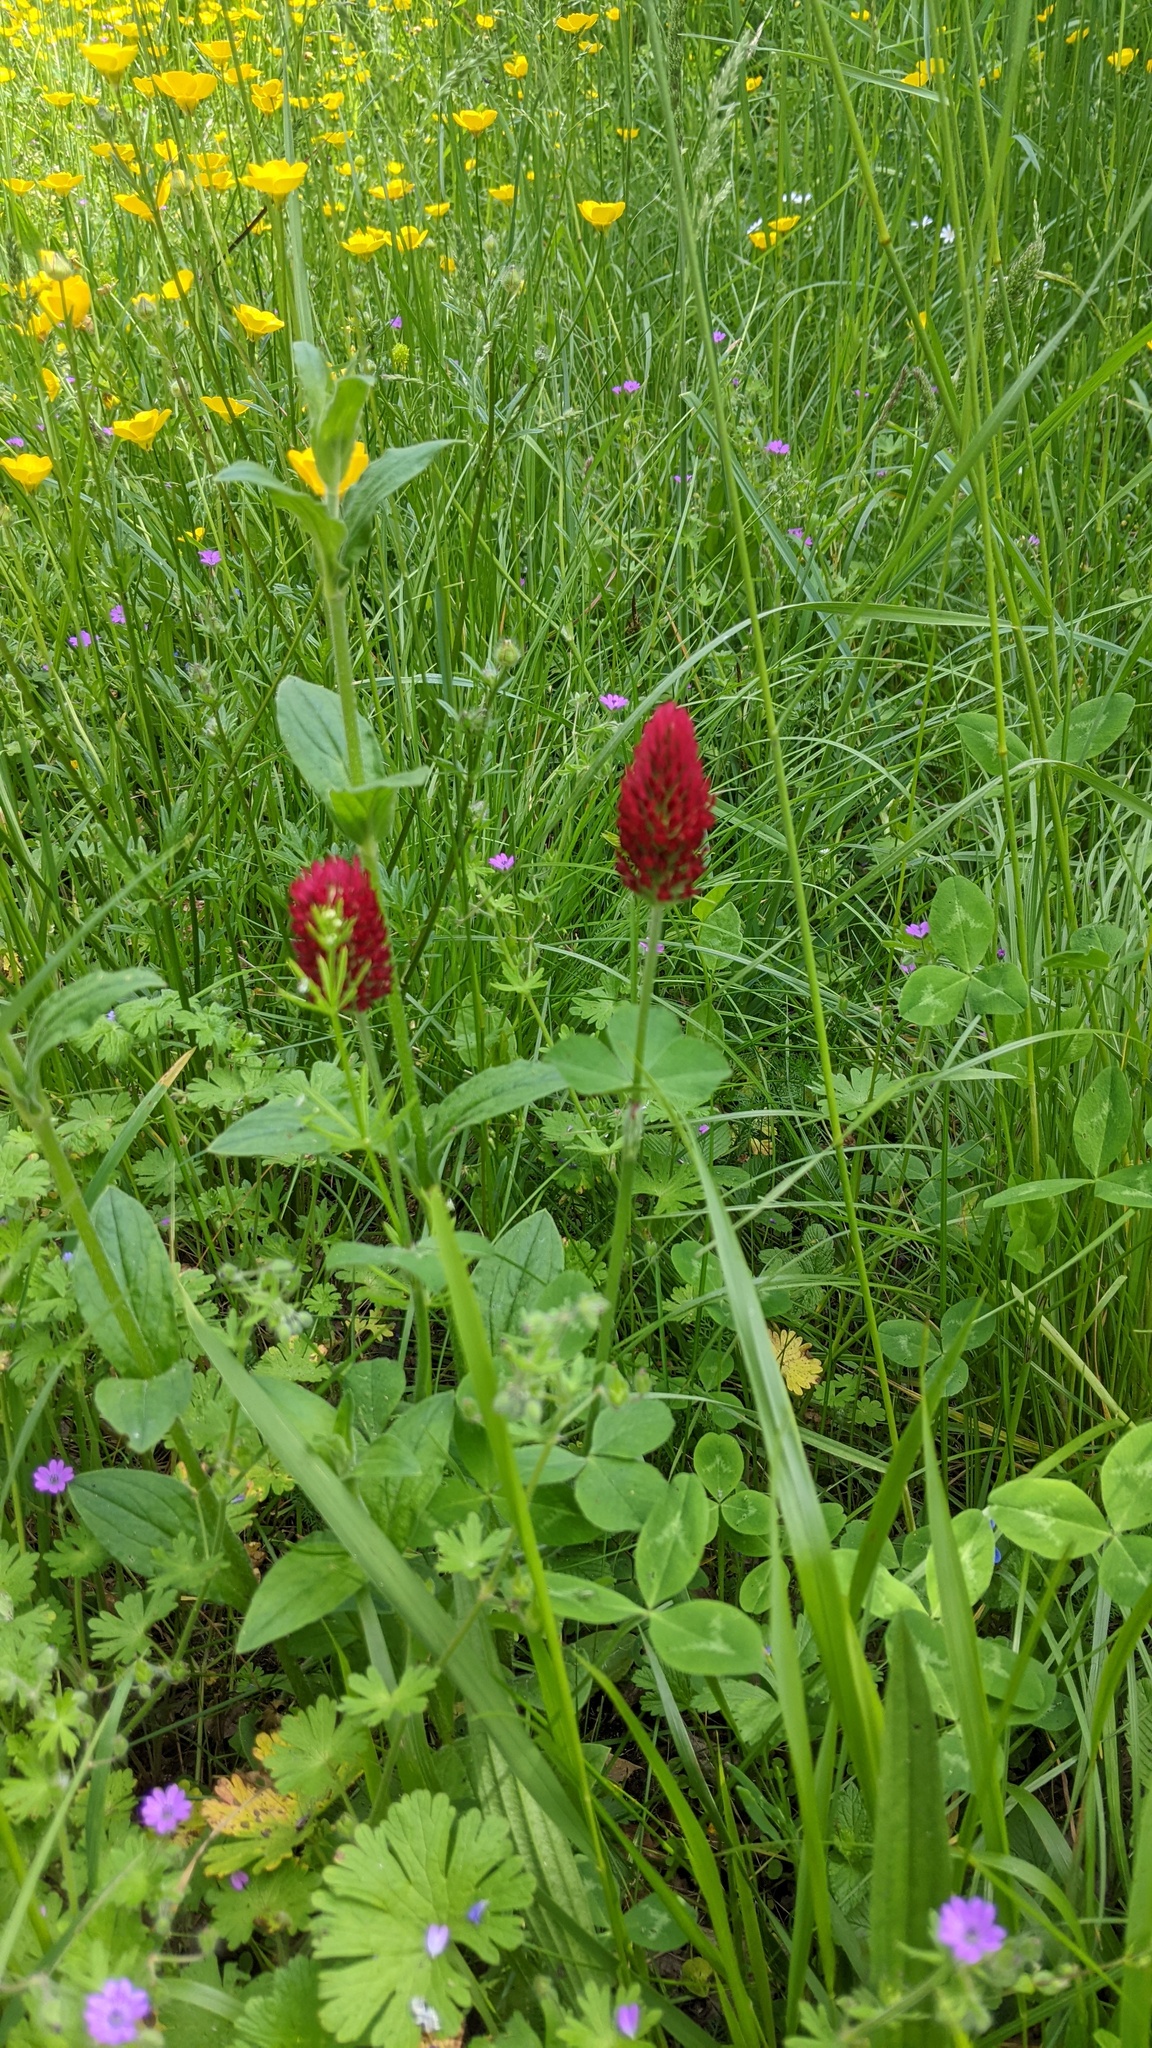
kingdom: Plantae
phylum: Tracheophyta
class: Magnoliopsida
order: Fabales
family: Fabaceae
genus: Trifolium
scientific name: Trifolium incarnatum
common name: Crimson clover
